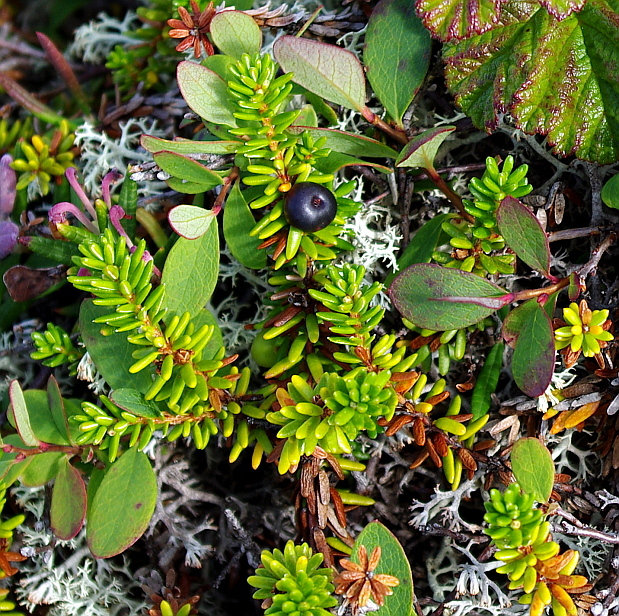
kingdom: Plantae
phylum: Tracheophyta
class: Magnoliopsida
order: Ericales
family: Ericaceae
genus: Empetrum
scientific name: Empetrum nigrum
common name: Black crowberry
